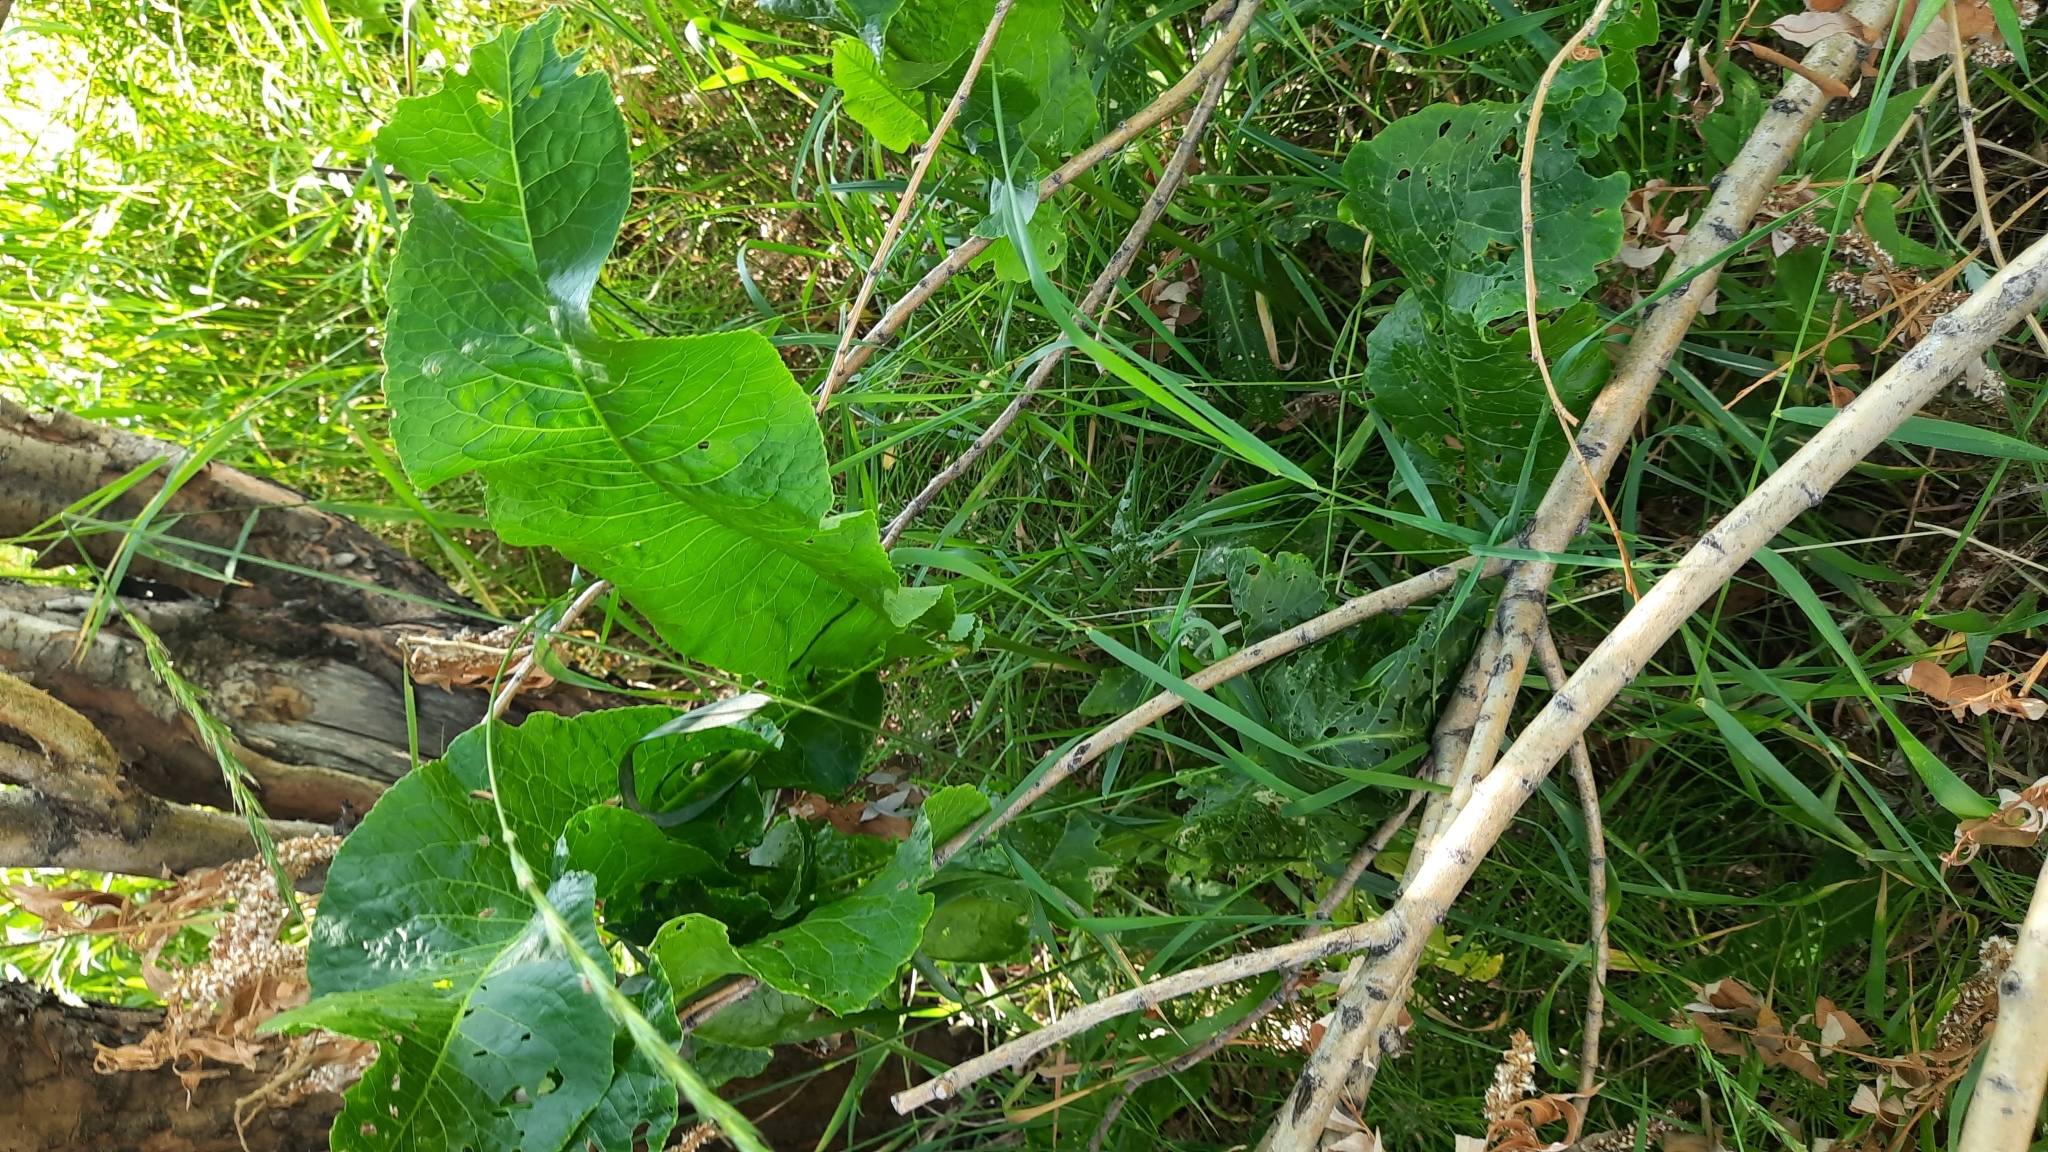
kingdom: Plantae
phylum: Tracheophyta
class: Magnoliopsida
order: Brassicales
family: Brassicaceae
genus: Armoracia
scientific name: Armoracia rusticana
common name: Horseradish
